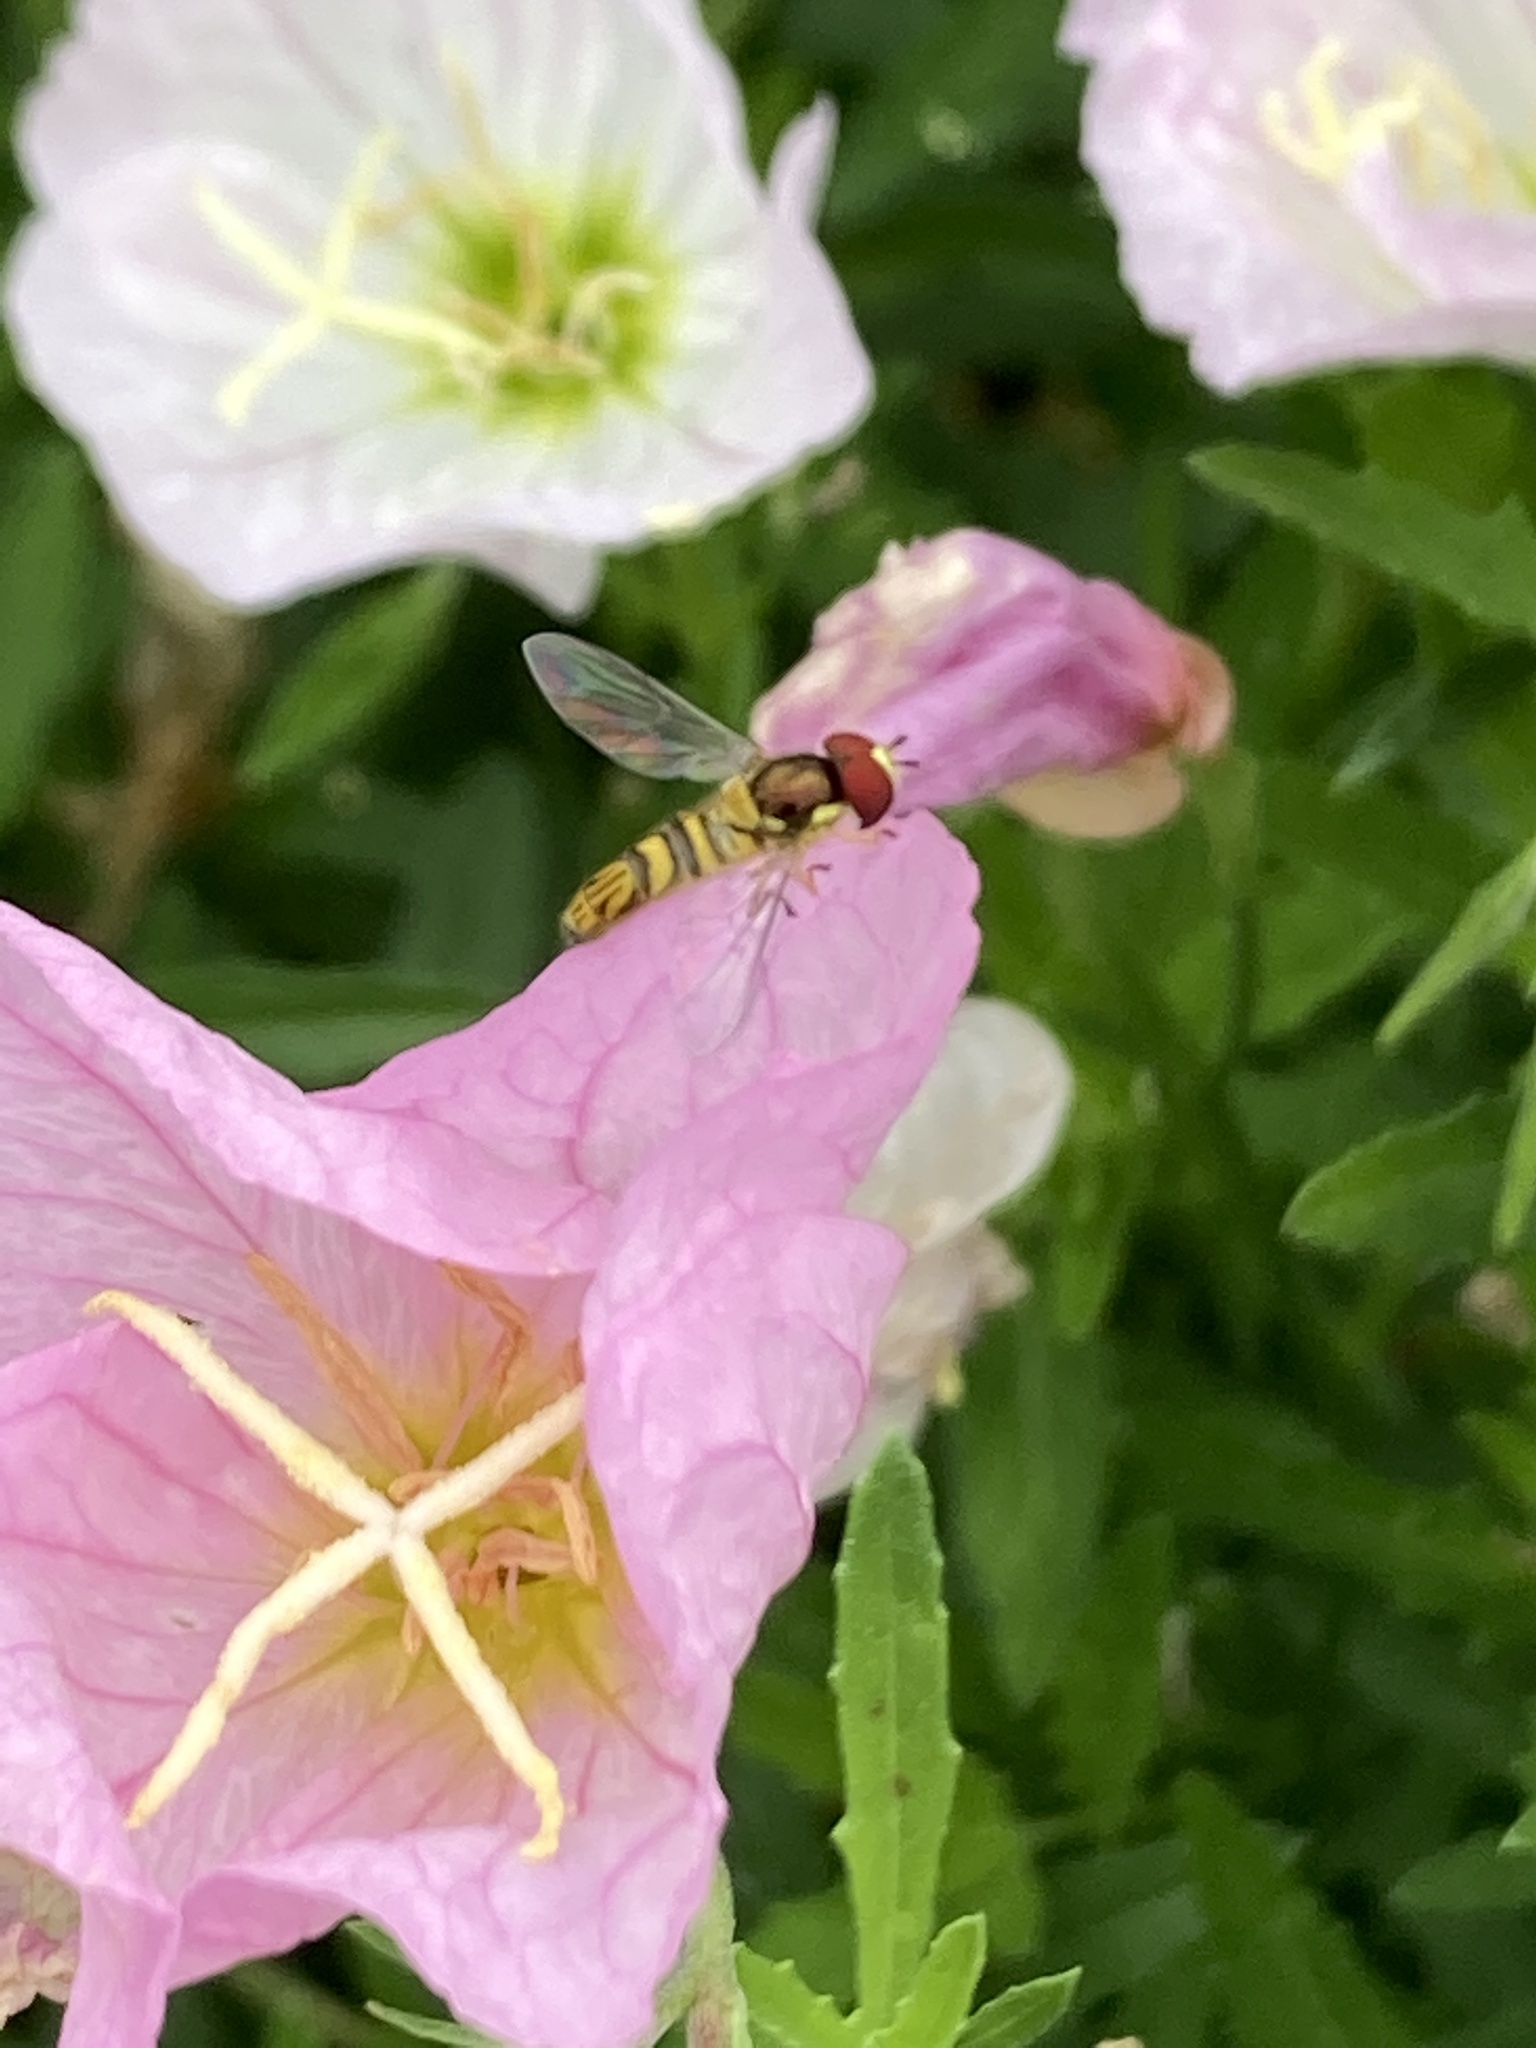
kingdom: Animalia
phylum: Arthropoda
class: Insecta
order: Diptera
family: Syrphidae
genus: Allograpta
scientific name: Allograpta obliqua
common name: Common oblique syrphid
